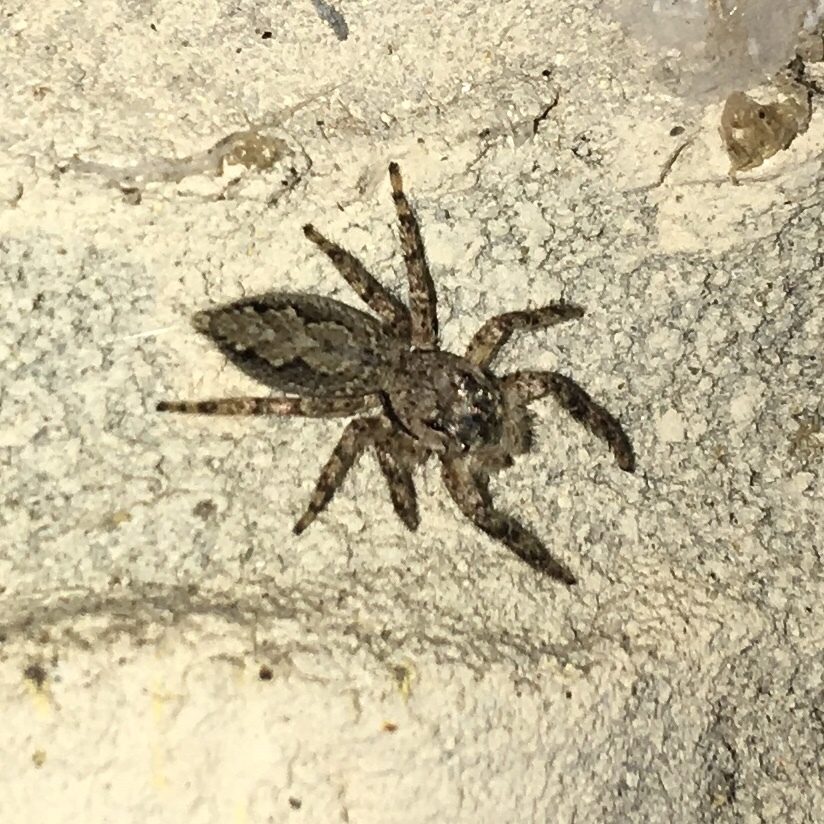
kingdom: Animalia
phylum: Arthropoda
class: Arachnida
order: Araneae
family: Salticidae
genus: Platycryptus
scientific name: Platycryptus undatus
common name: Tan jumping spider
